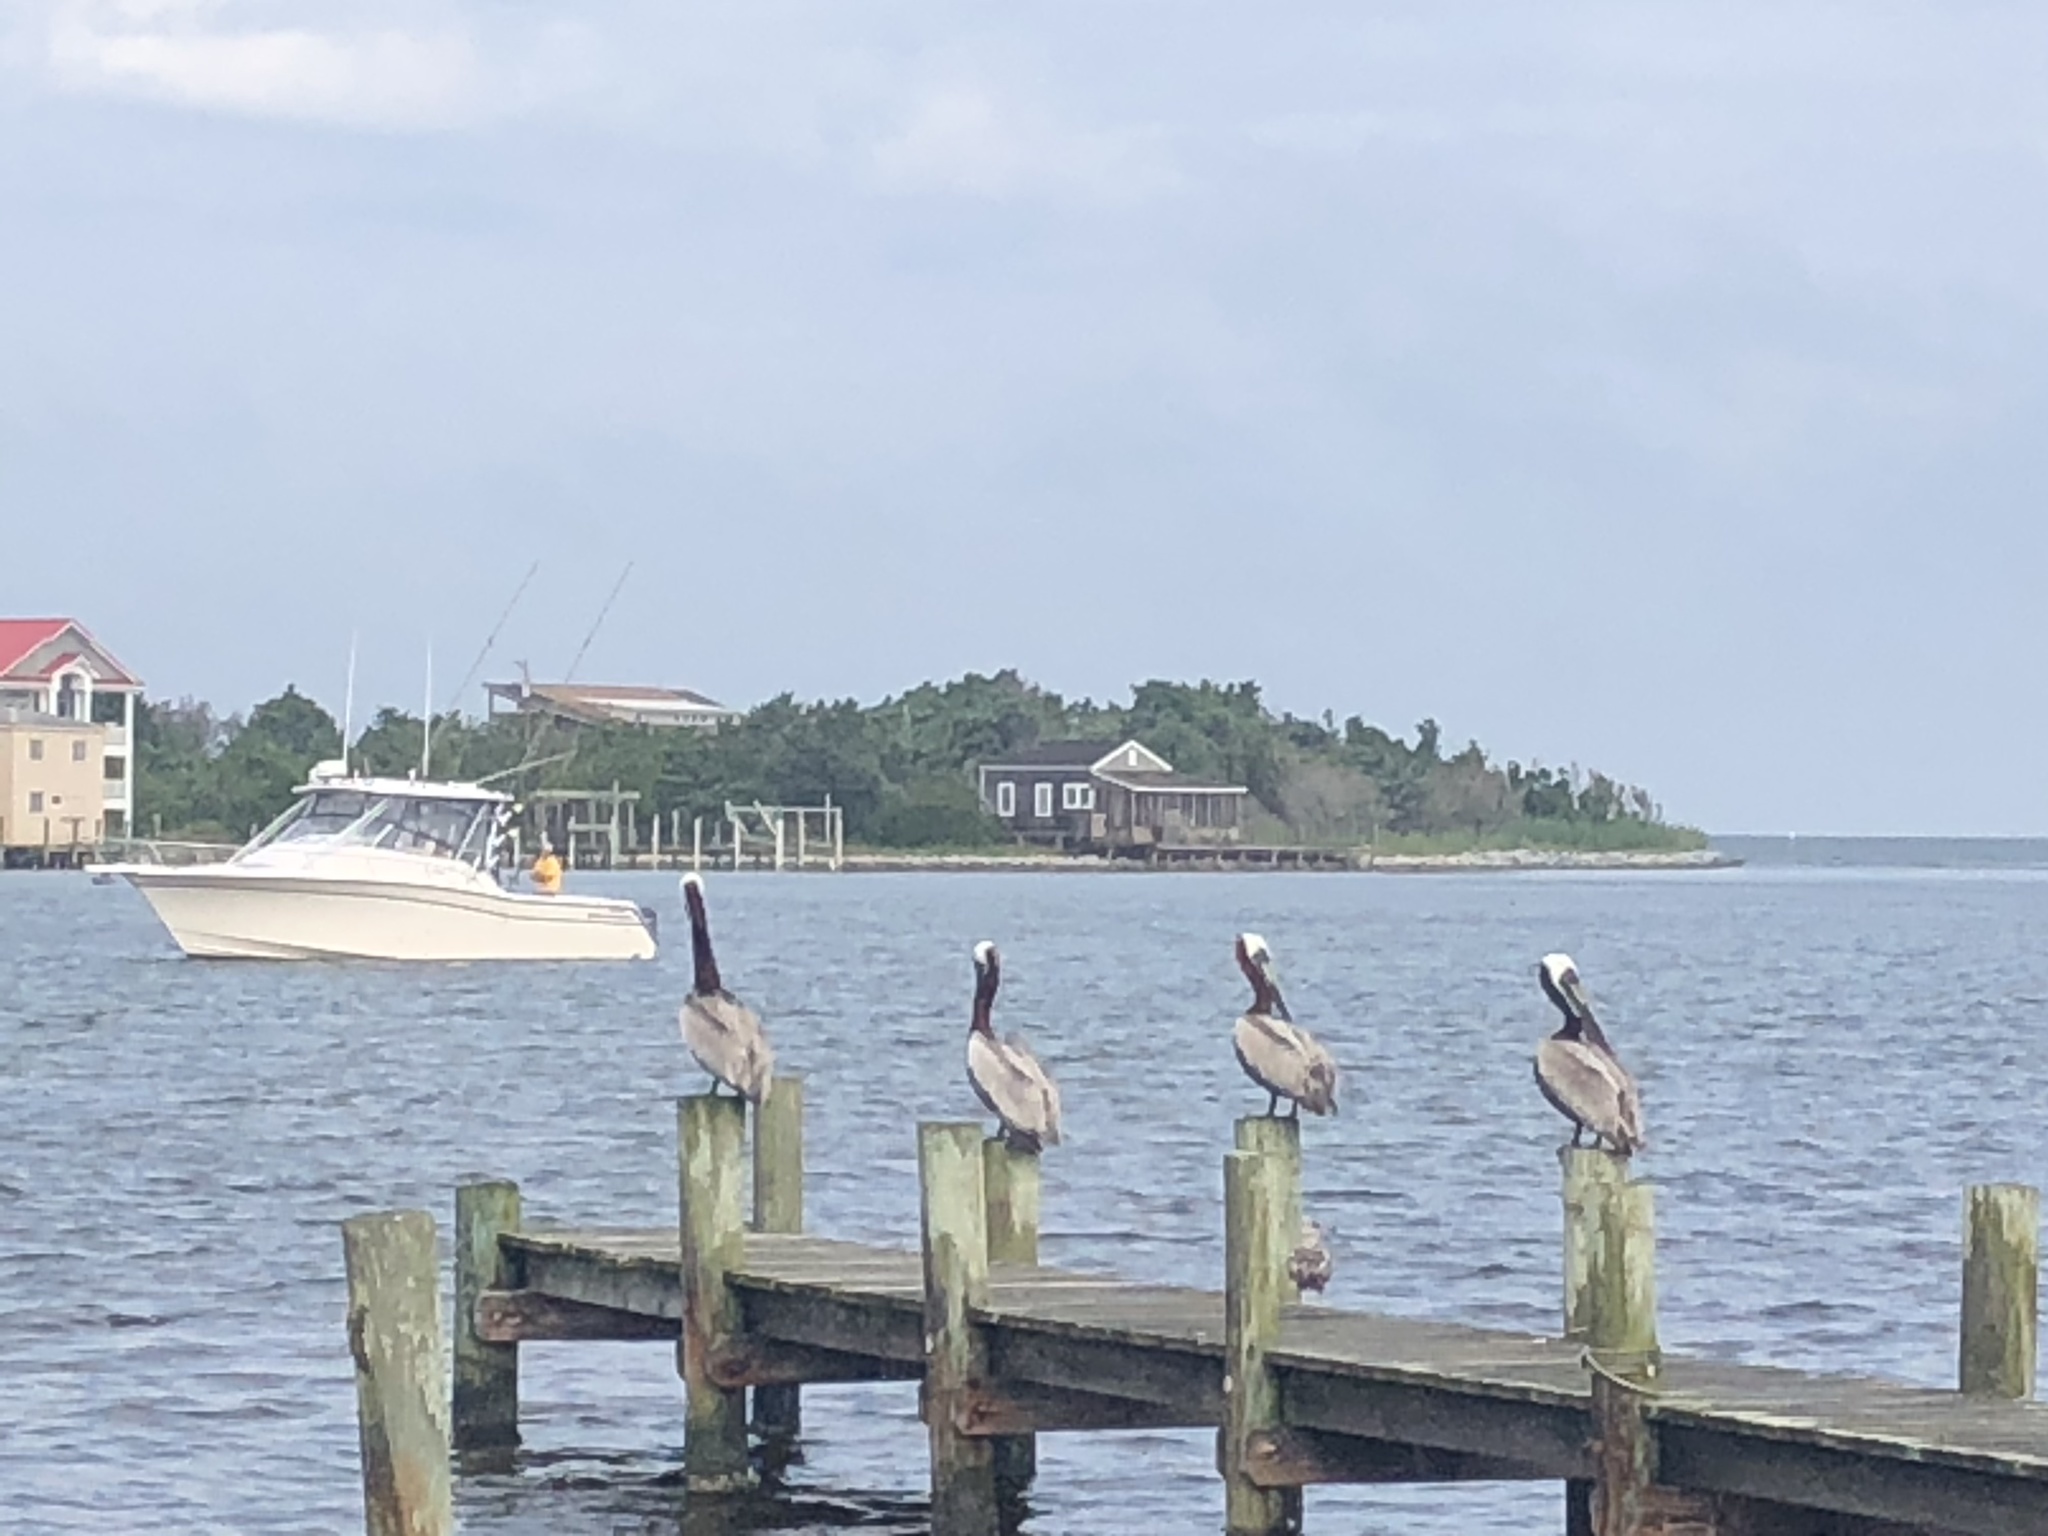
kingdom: Animalia
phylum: Chordata
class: Aves
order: Pelecaniformes
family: Pelecanidae
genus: Pelecanus
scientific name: Pelecanus occidentalis
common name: Brown pelican
